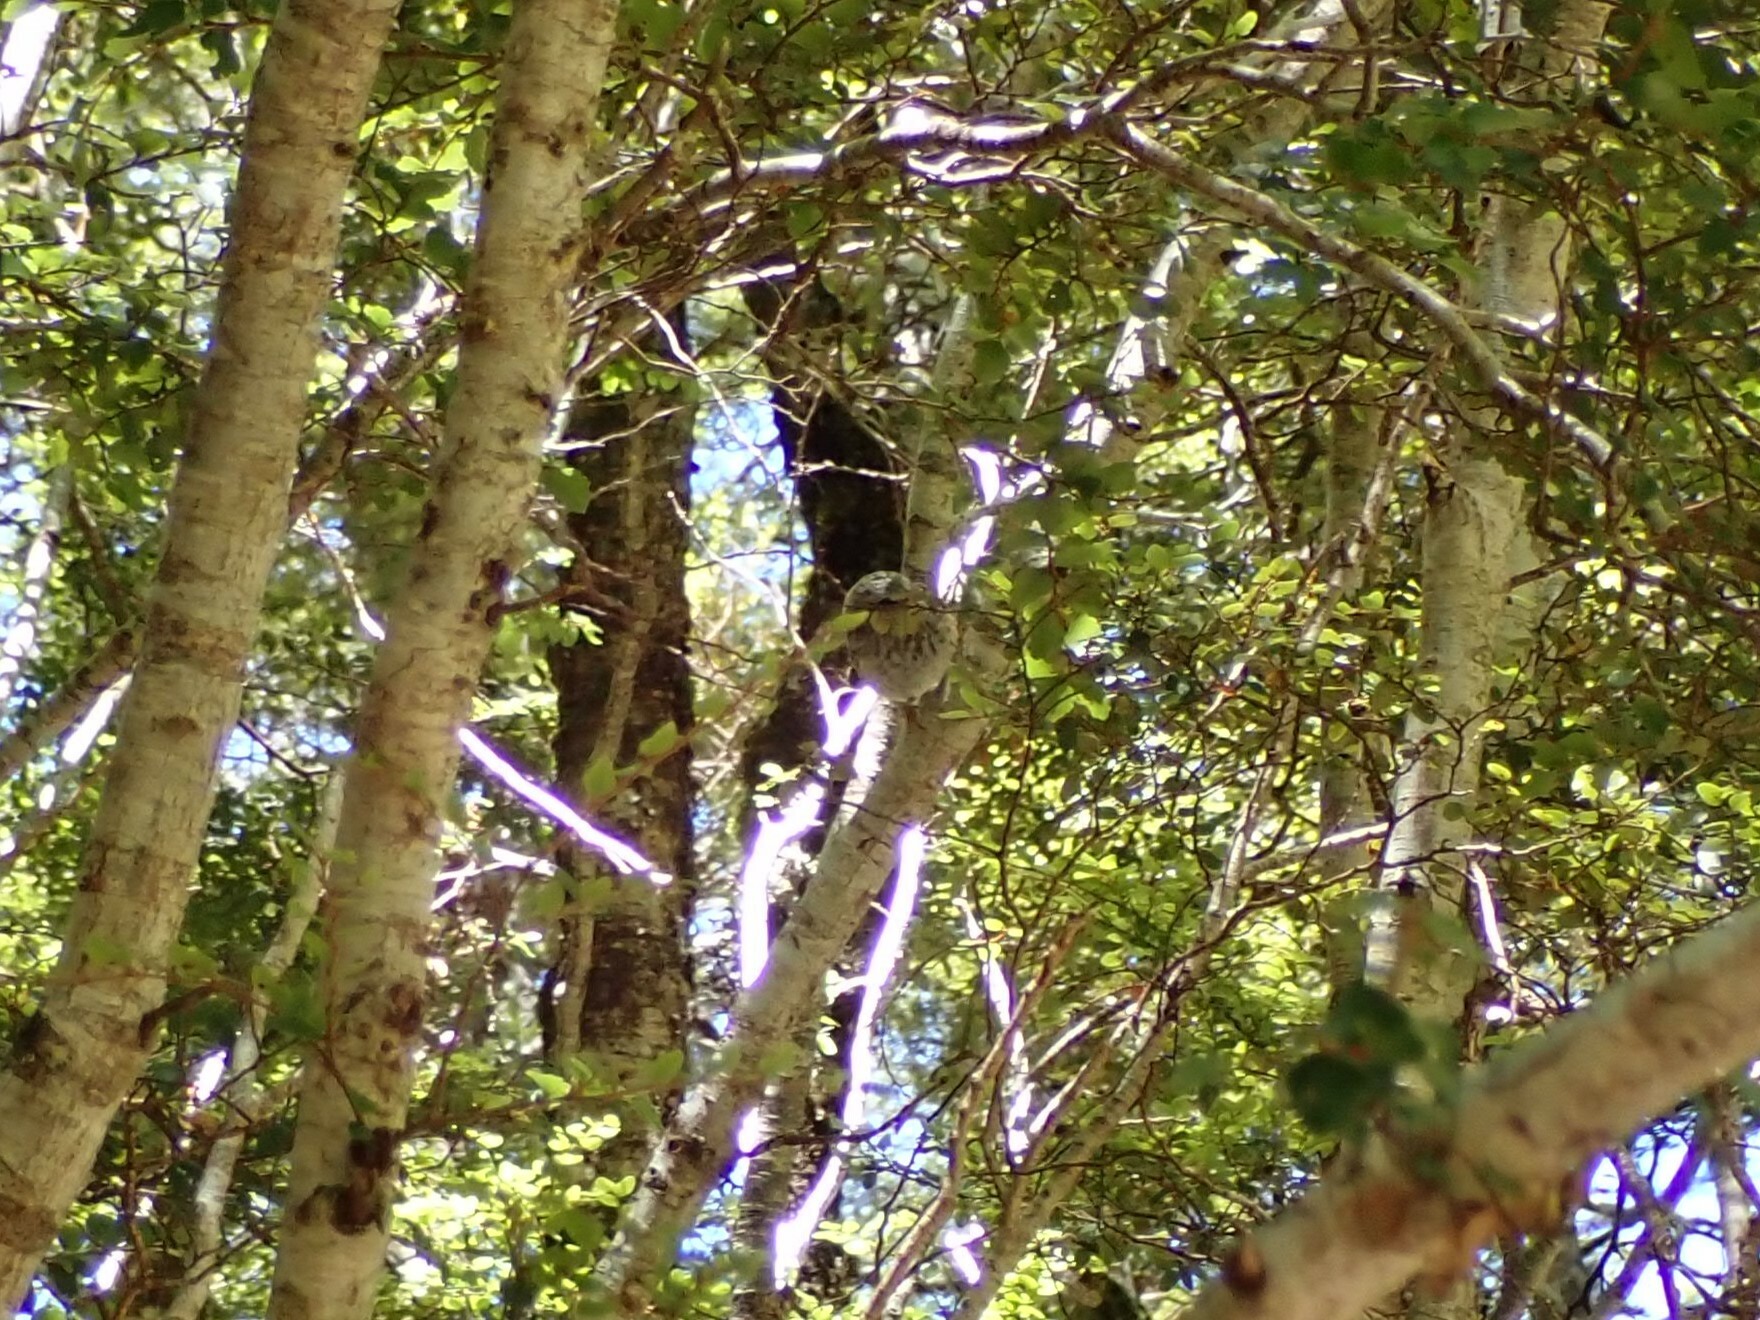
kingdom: Animalia
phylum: Chordata
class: Aves
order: Passeriformes
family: Acanthisittidae
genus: Acanthisitta
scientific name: Acanthisitta chloris
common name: Rifleman
